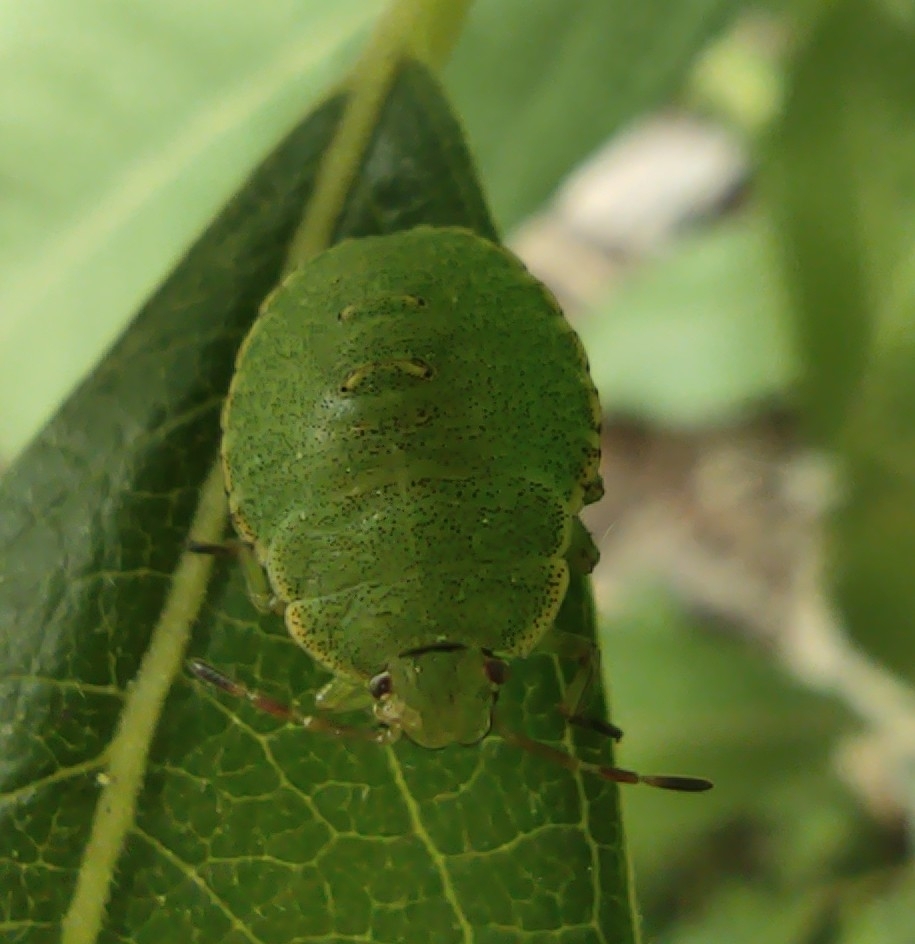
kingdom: Animalia
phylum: Arthropoda
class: Insecta
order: Hemiptera
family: Pentatomidae
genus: Palomena
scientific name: Palomena prasina
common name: Green shieldbug
